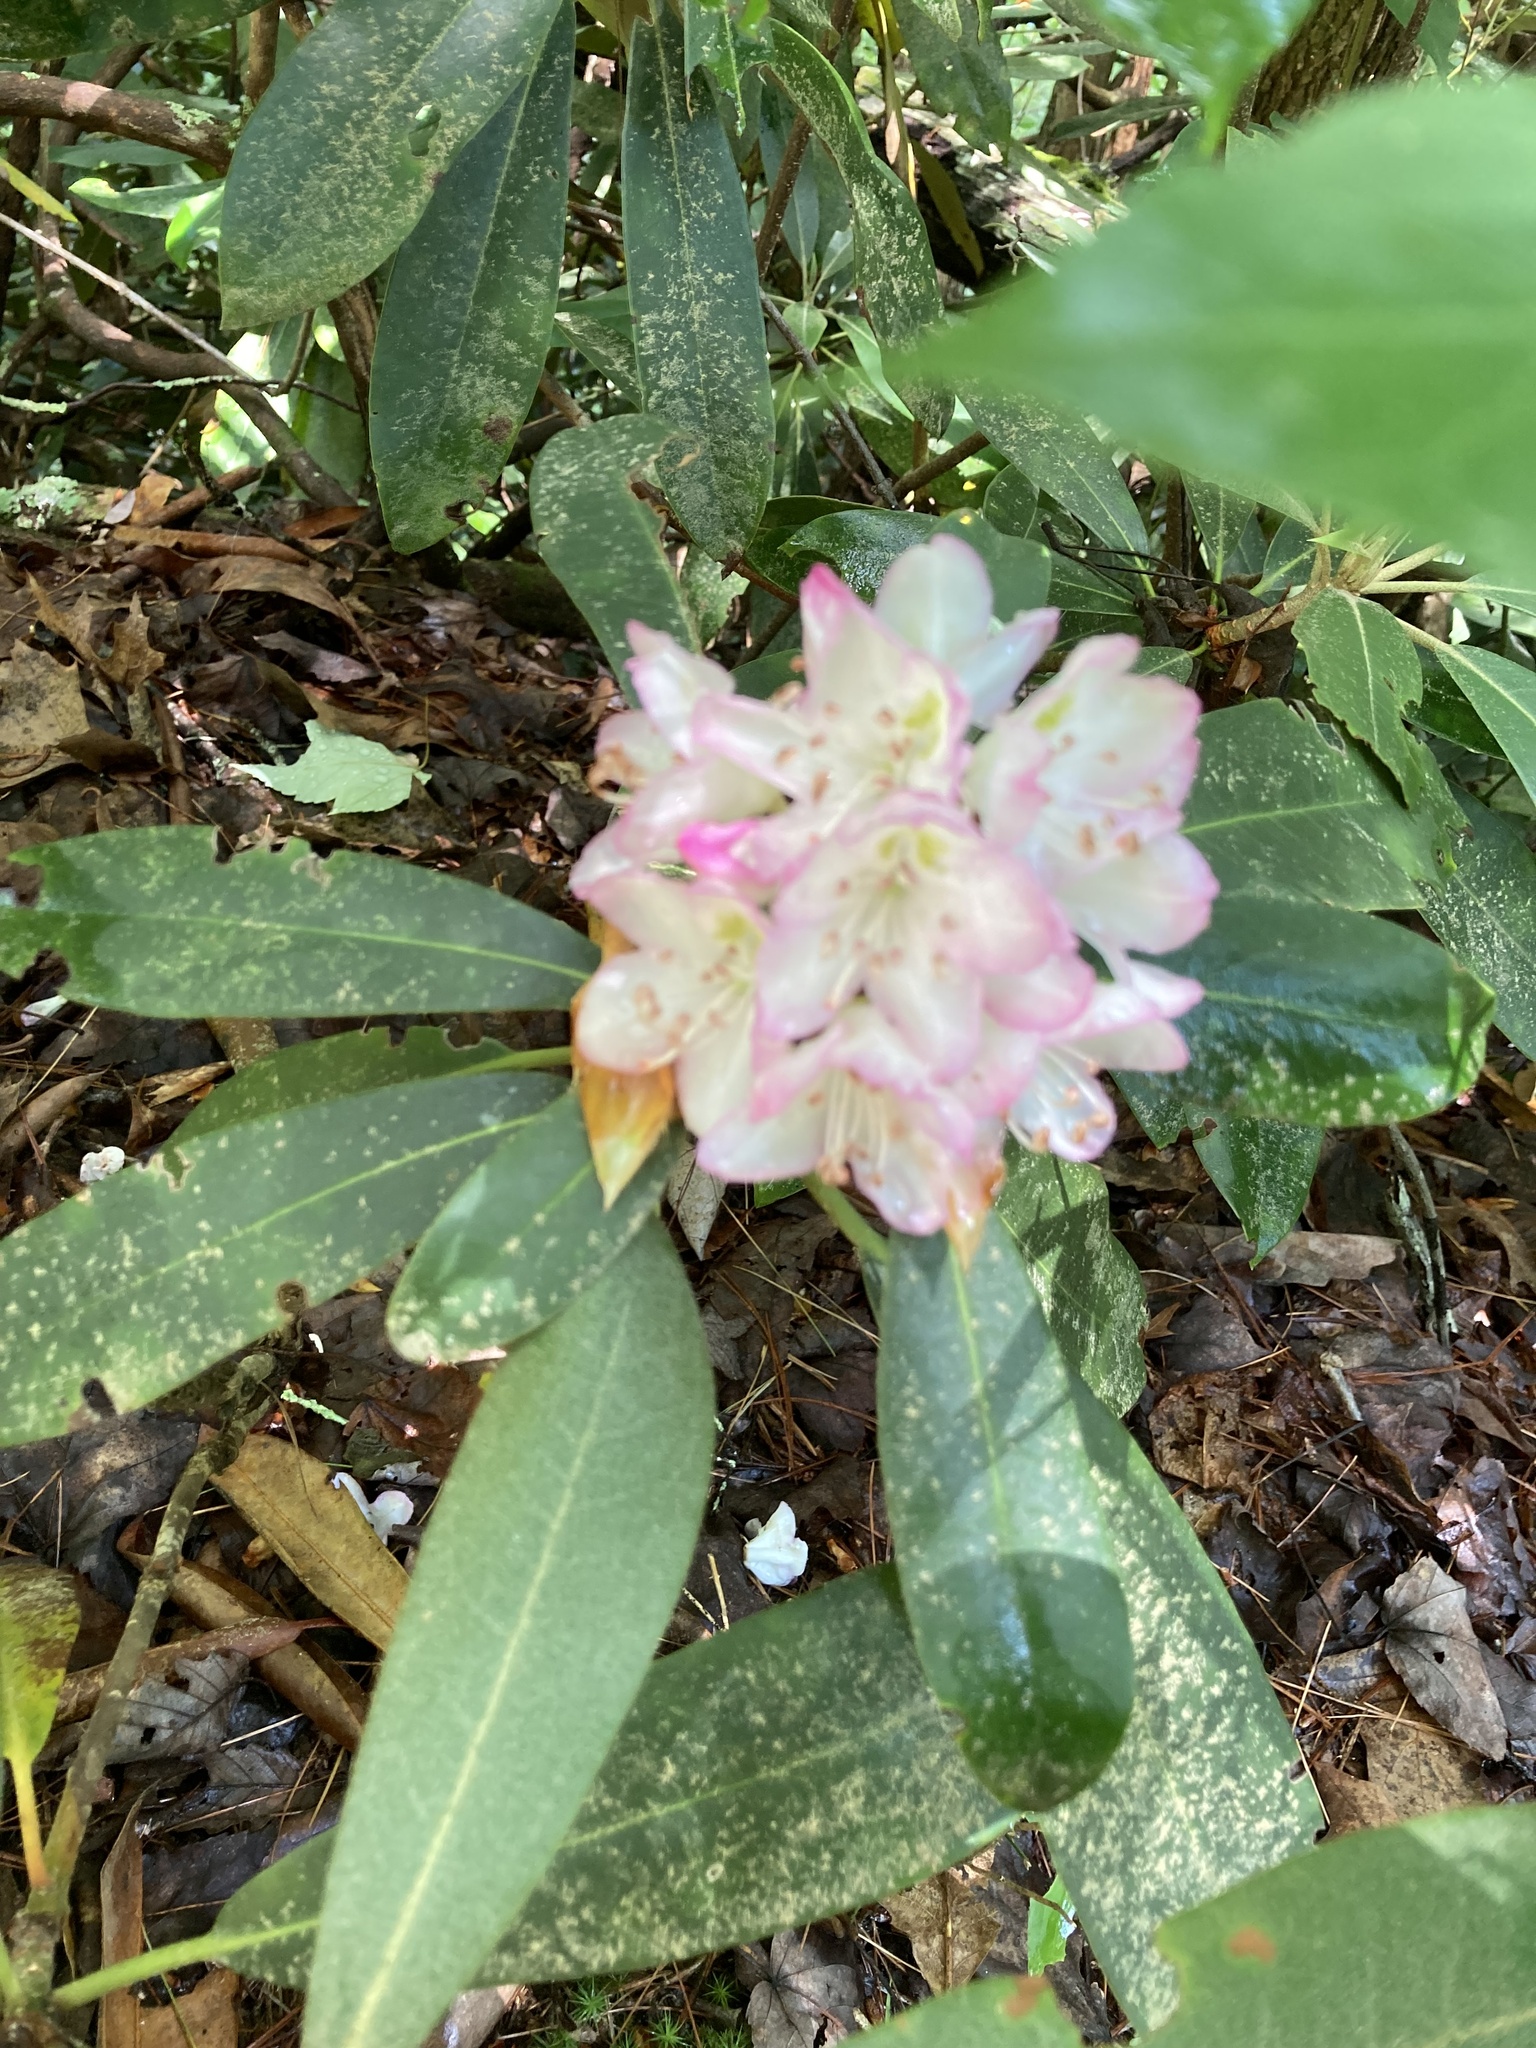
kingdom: Plantae
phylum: Tracheophyta
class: Magnoliopsida
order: Ericales
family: Ericaceae
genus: Rhododendron
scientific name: Rhododendron maximum
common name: Great rhododendron
